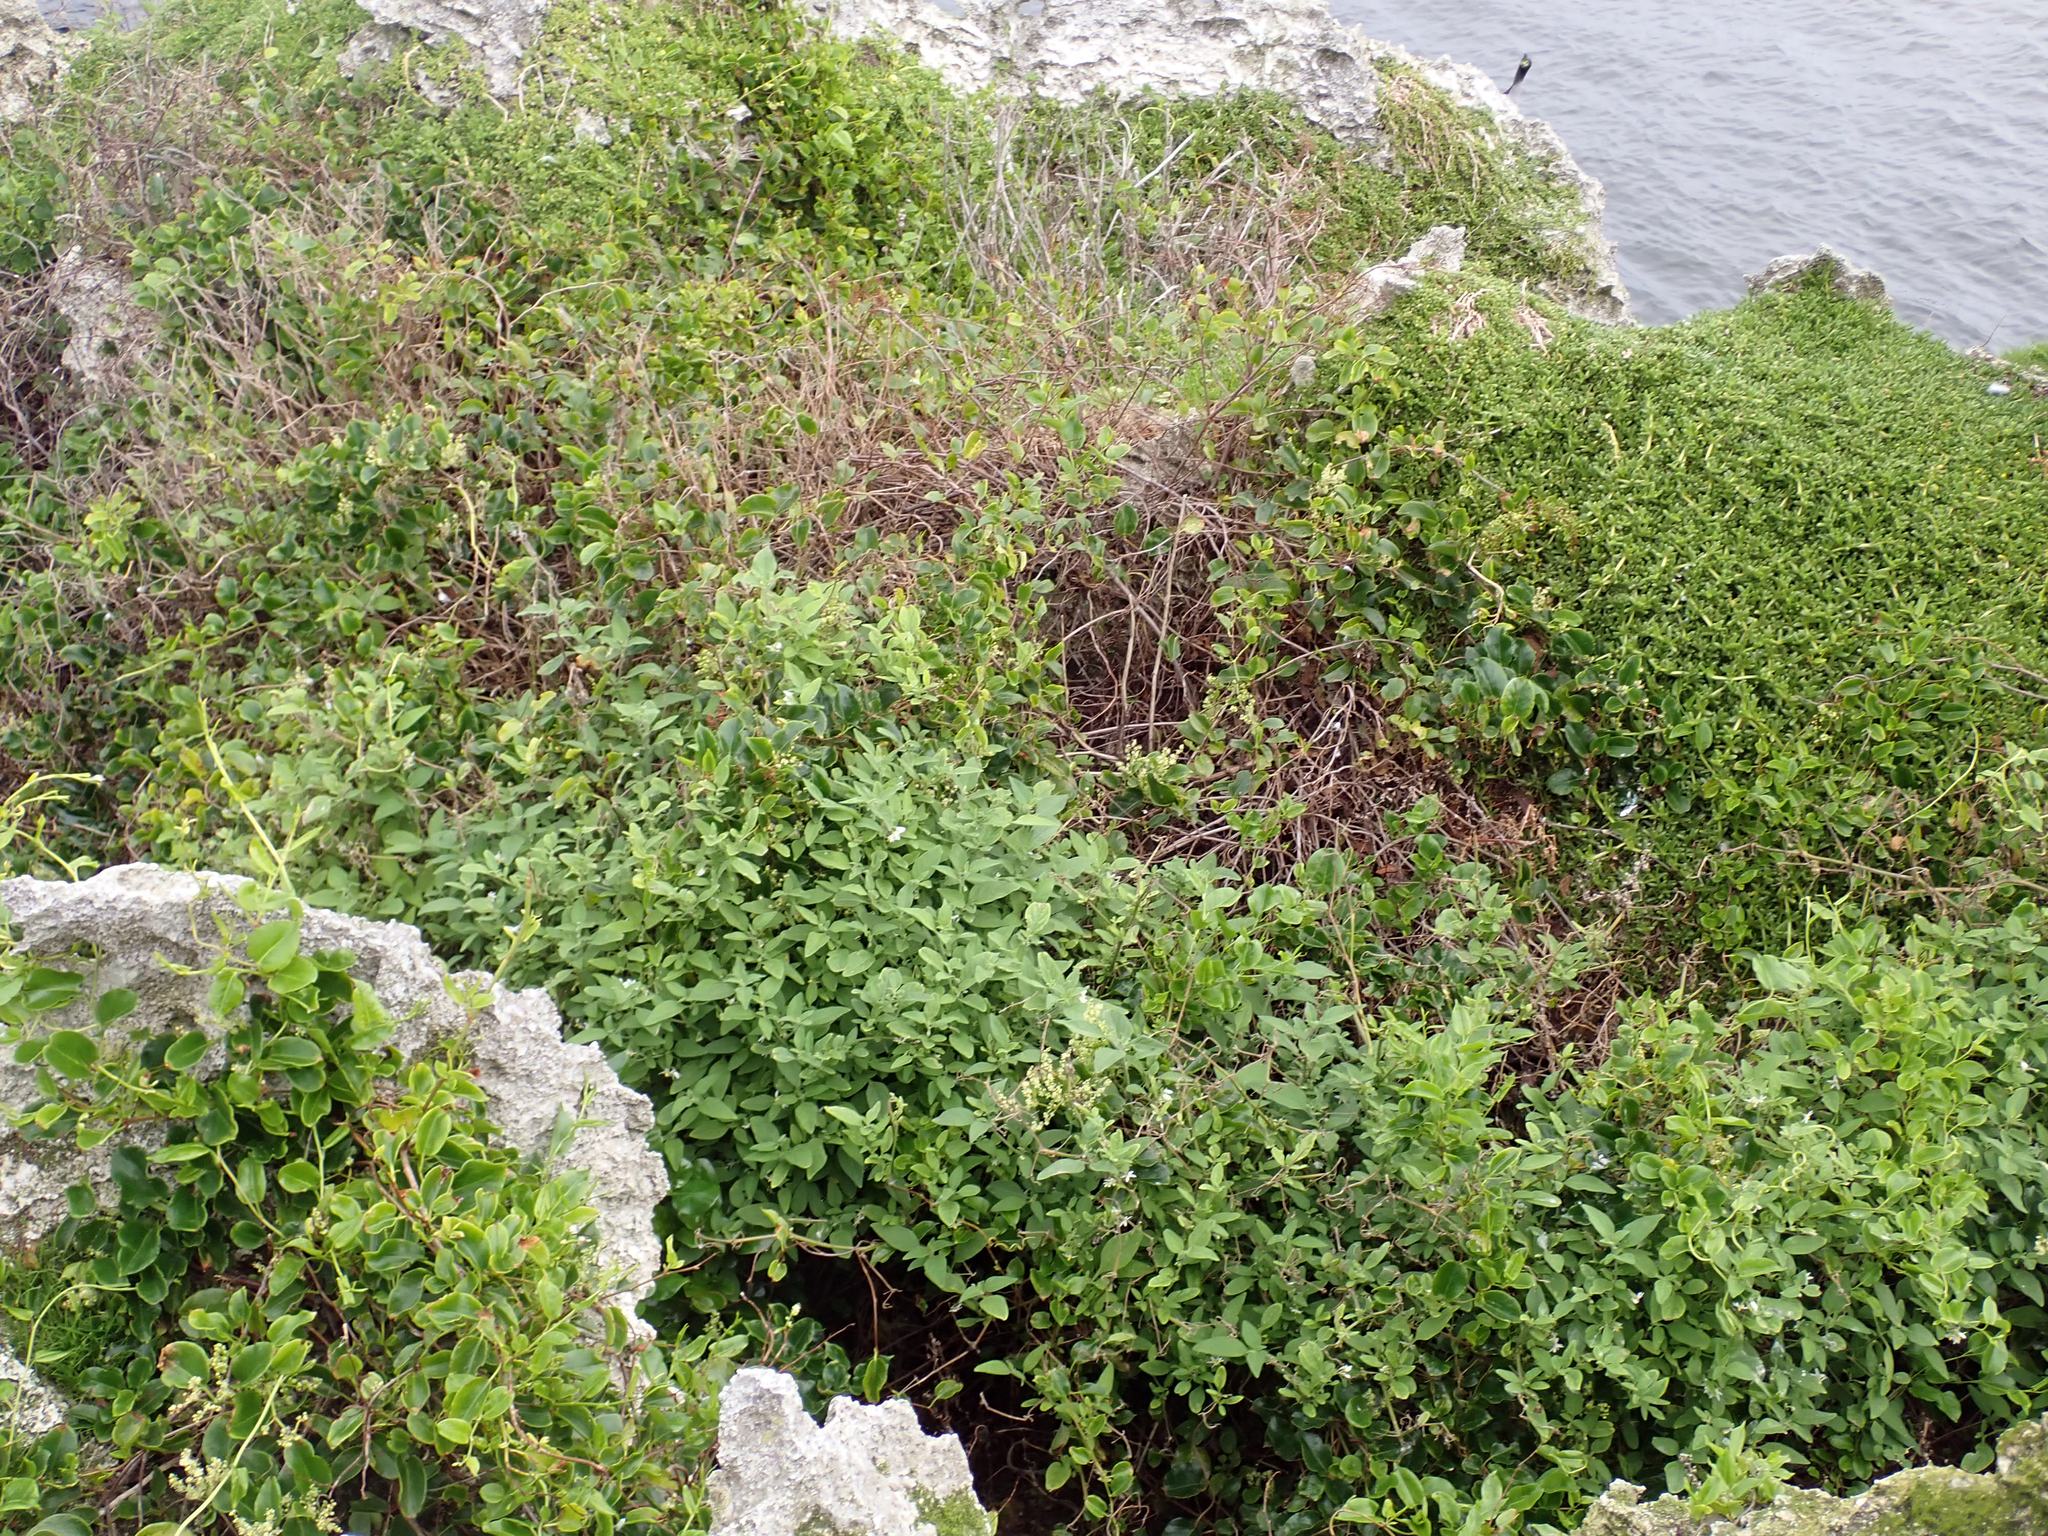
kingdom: Plantae
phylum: Tracheophyta
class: Magnoliopsida
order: Solanales
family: Solanaceae
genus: Solanum
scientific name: Solanum chenopodioides
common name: Tall nightshade
